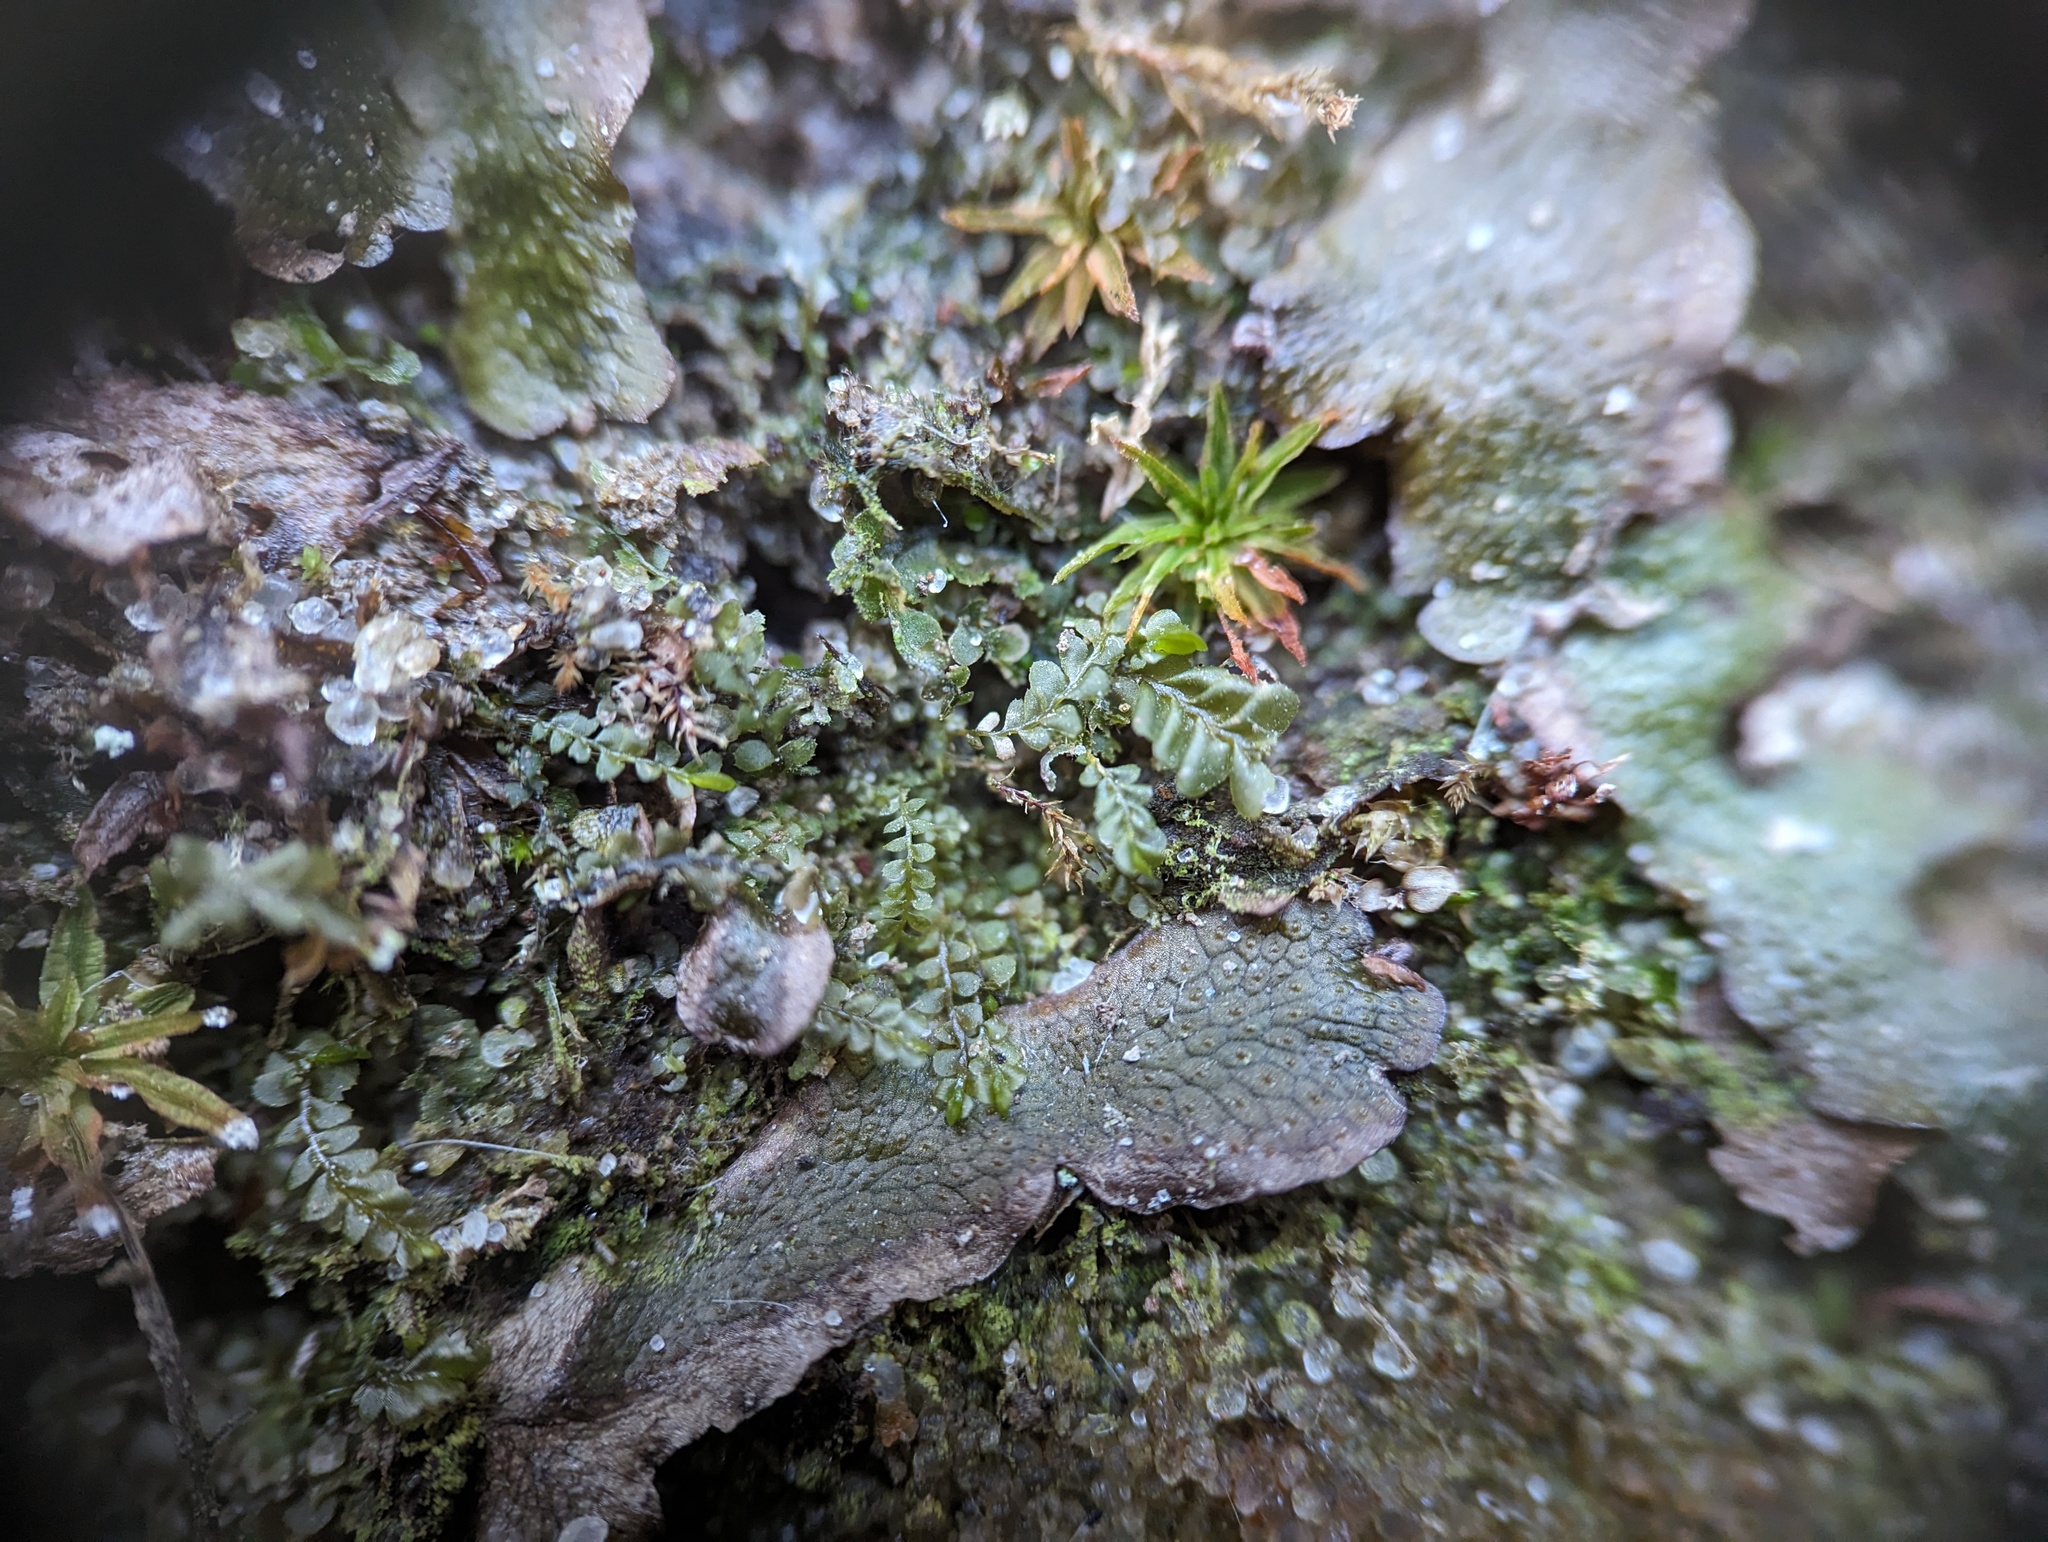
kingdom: Plantae
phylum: Marchantiophyta
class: Jungermanniopsida
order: Jungermanniales
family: Plagiochilaceae
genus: Plagiochila
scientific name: Plagiochila porelloides
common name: Lesser featherwort
